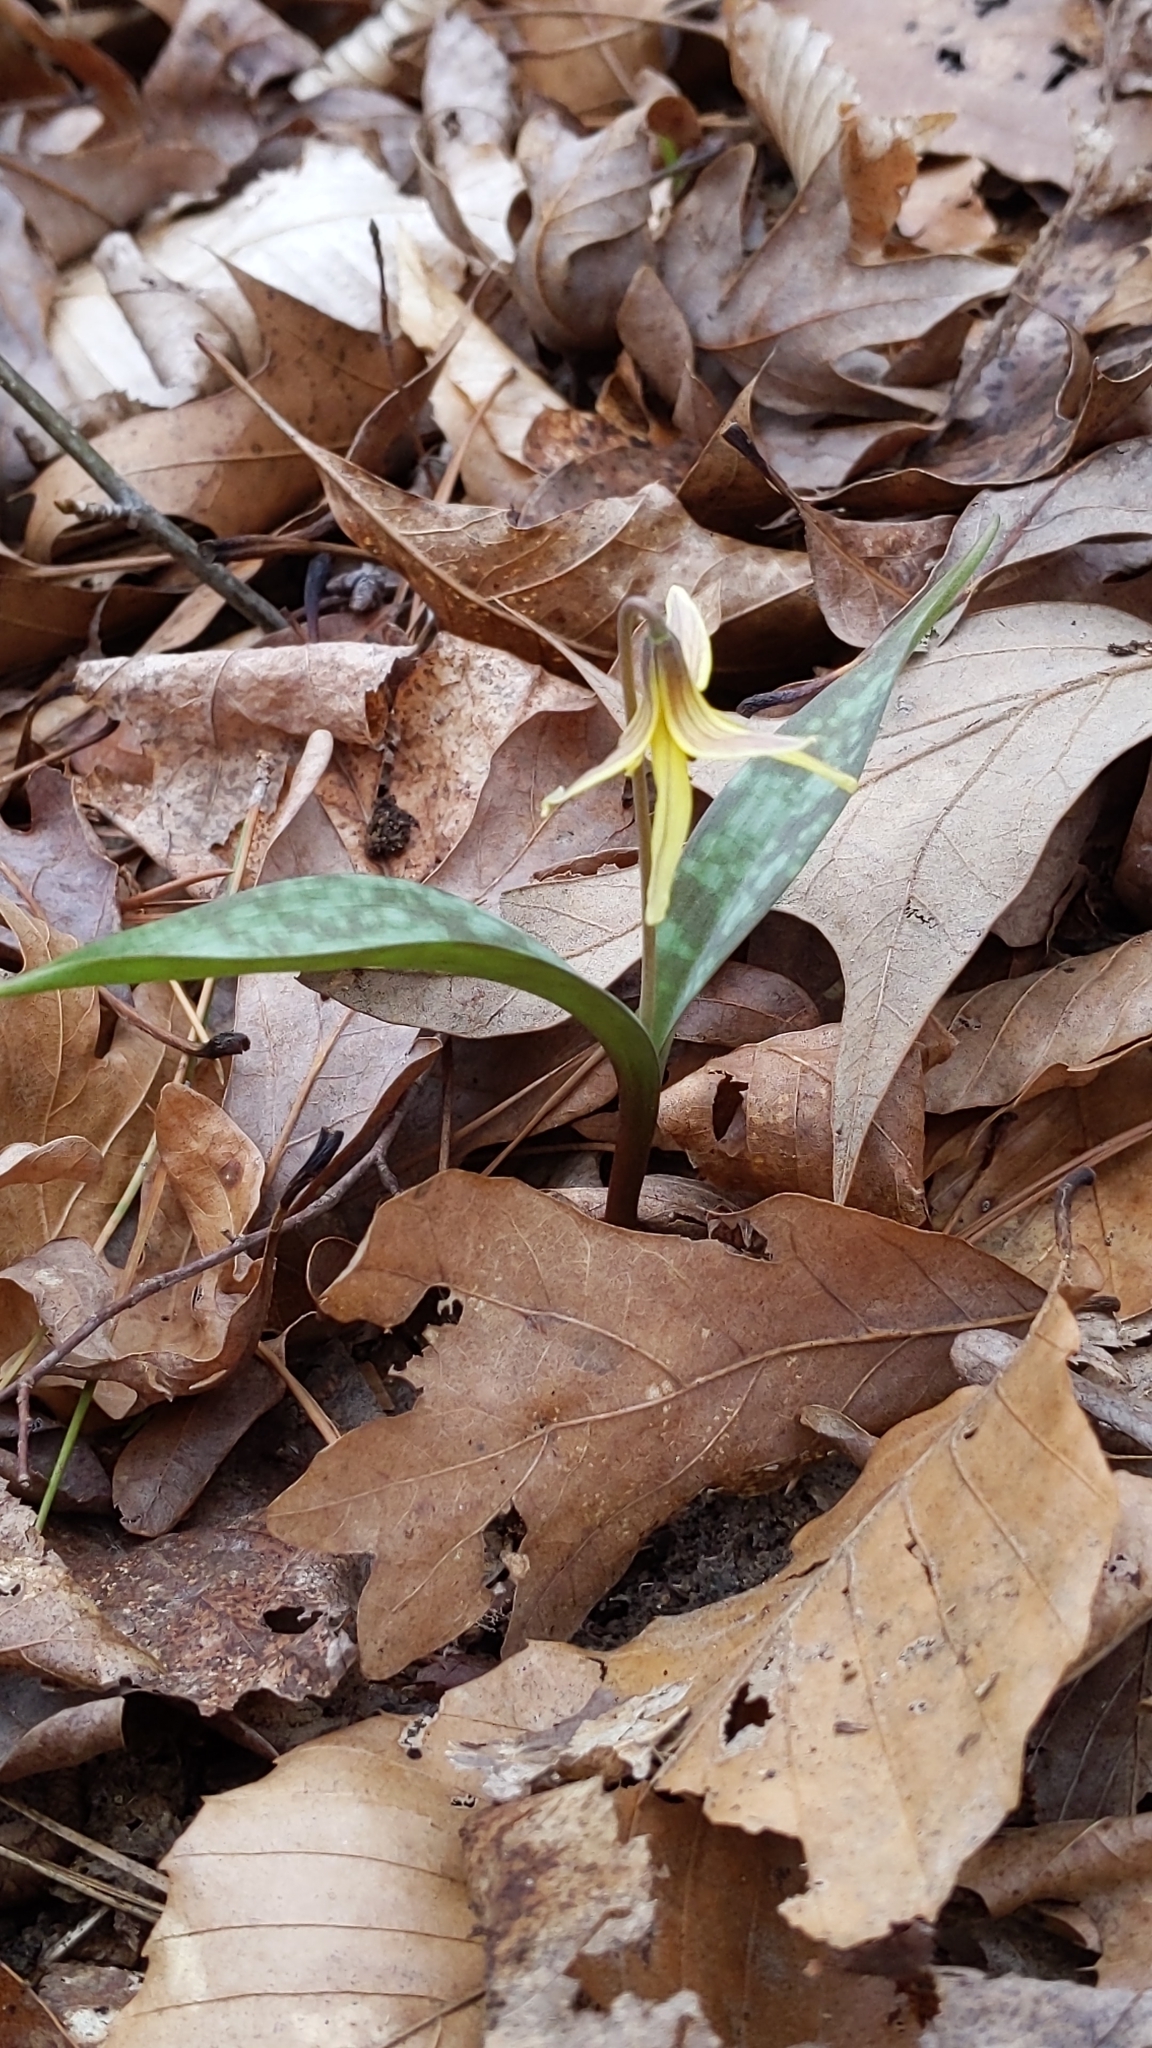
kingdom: Plantae
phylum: Tracheophyta
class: Liliopsida
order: Liliales
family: Liliaceae
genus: Erythronium
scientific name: Erythronium umbilicatum
